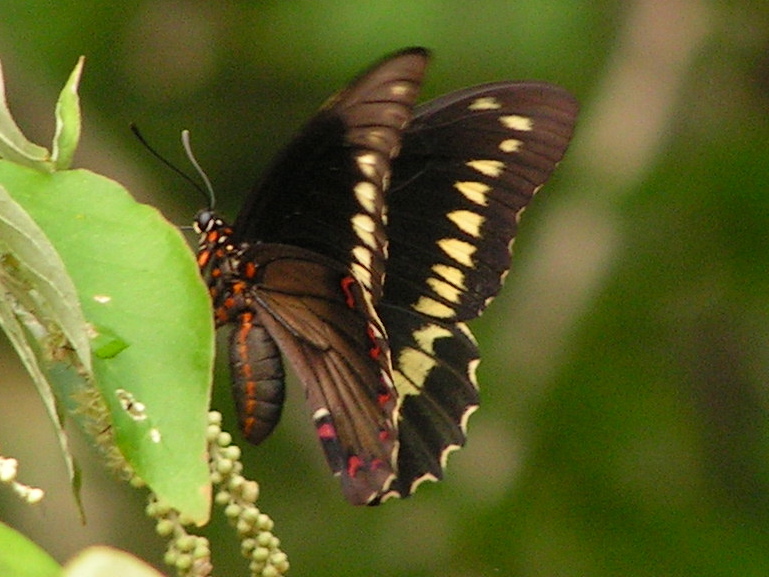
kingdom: Animalia
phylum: Arthropoda
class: Insecta
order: Lepidoptera
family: Papilionidae
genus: Battus
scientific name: Battus polydamas
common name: Polydamas swallowtail
